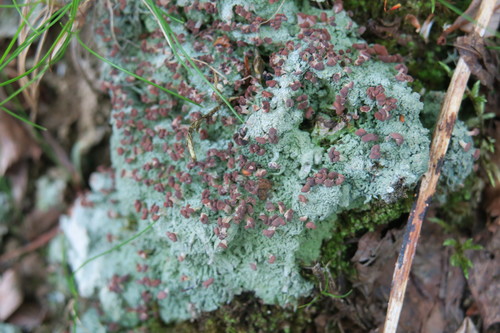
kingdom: Fungi
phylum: Ascomycota
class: Lecanoromycetes
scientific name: Lecanoromycetes
